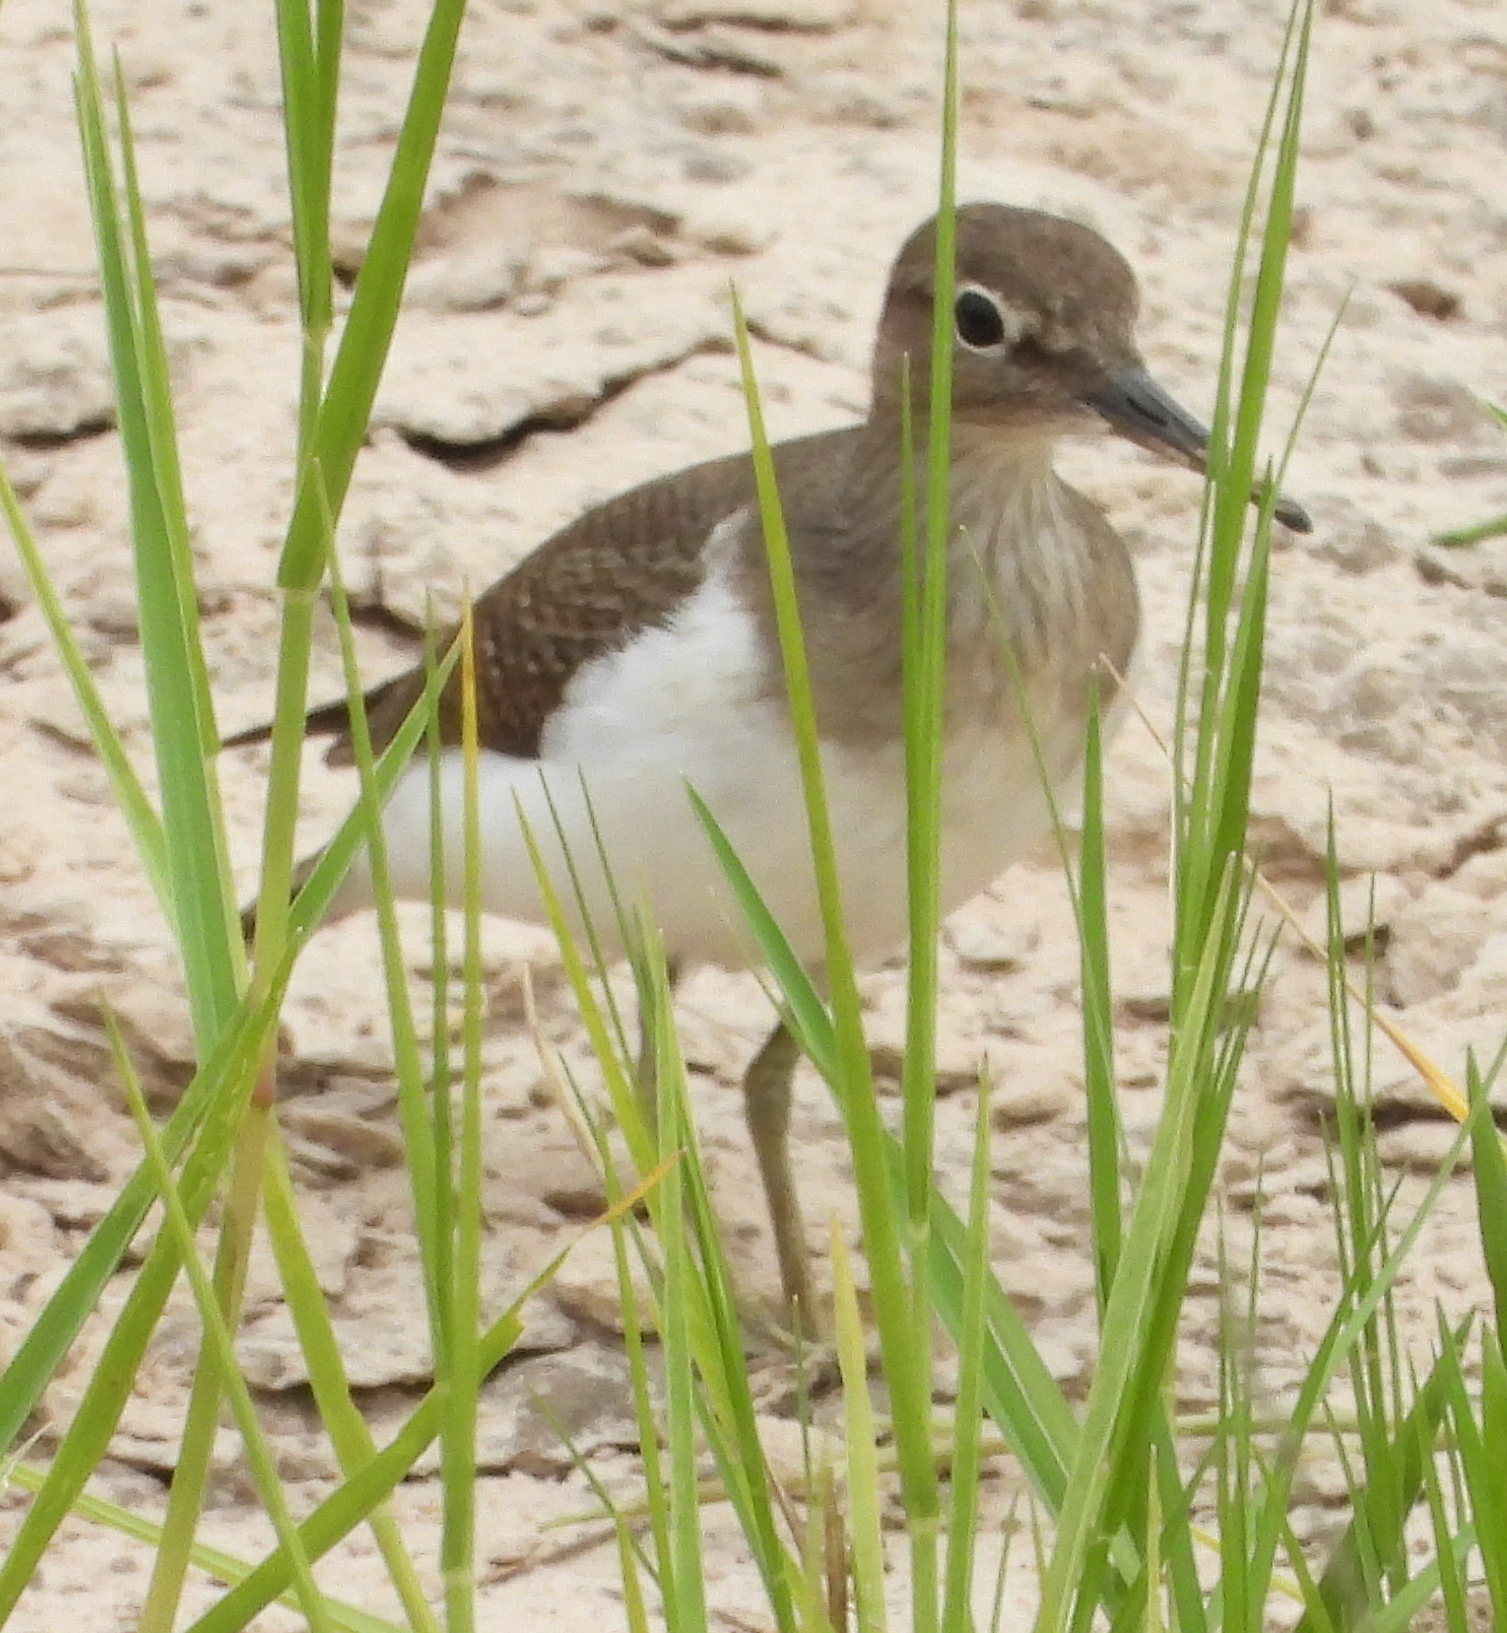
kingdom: Animalia
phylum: Chordata
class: Aves
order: Charadriiformes
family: Scolopacidae
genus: Actitis
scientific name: Actitis hypoleucos
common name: Common sandpiper
